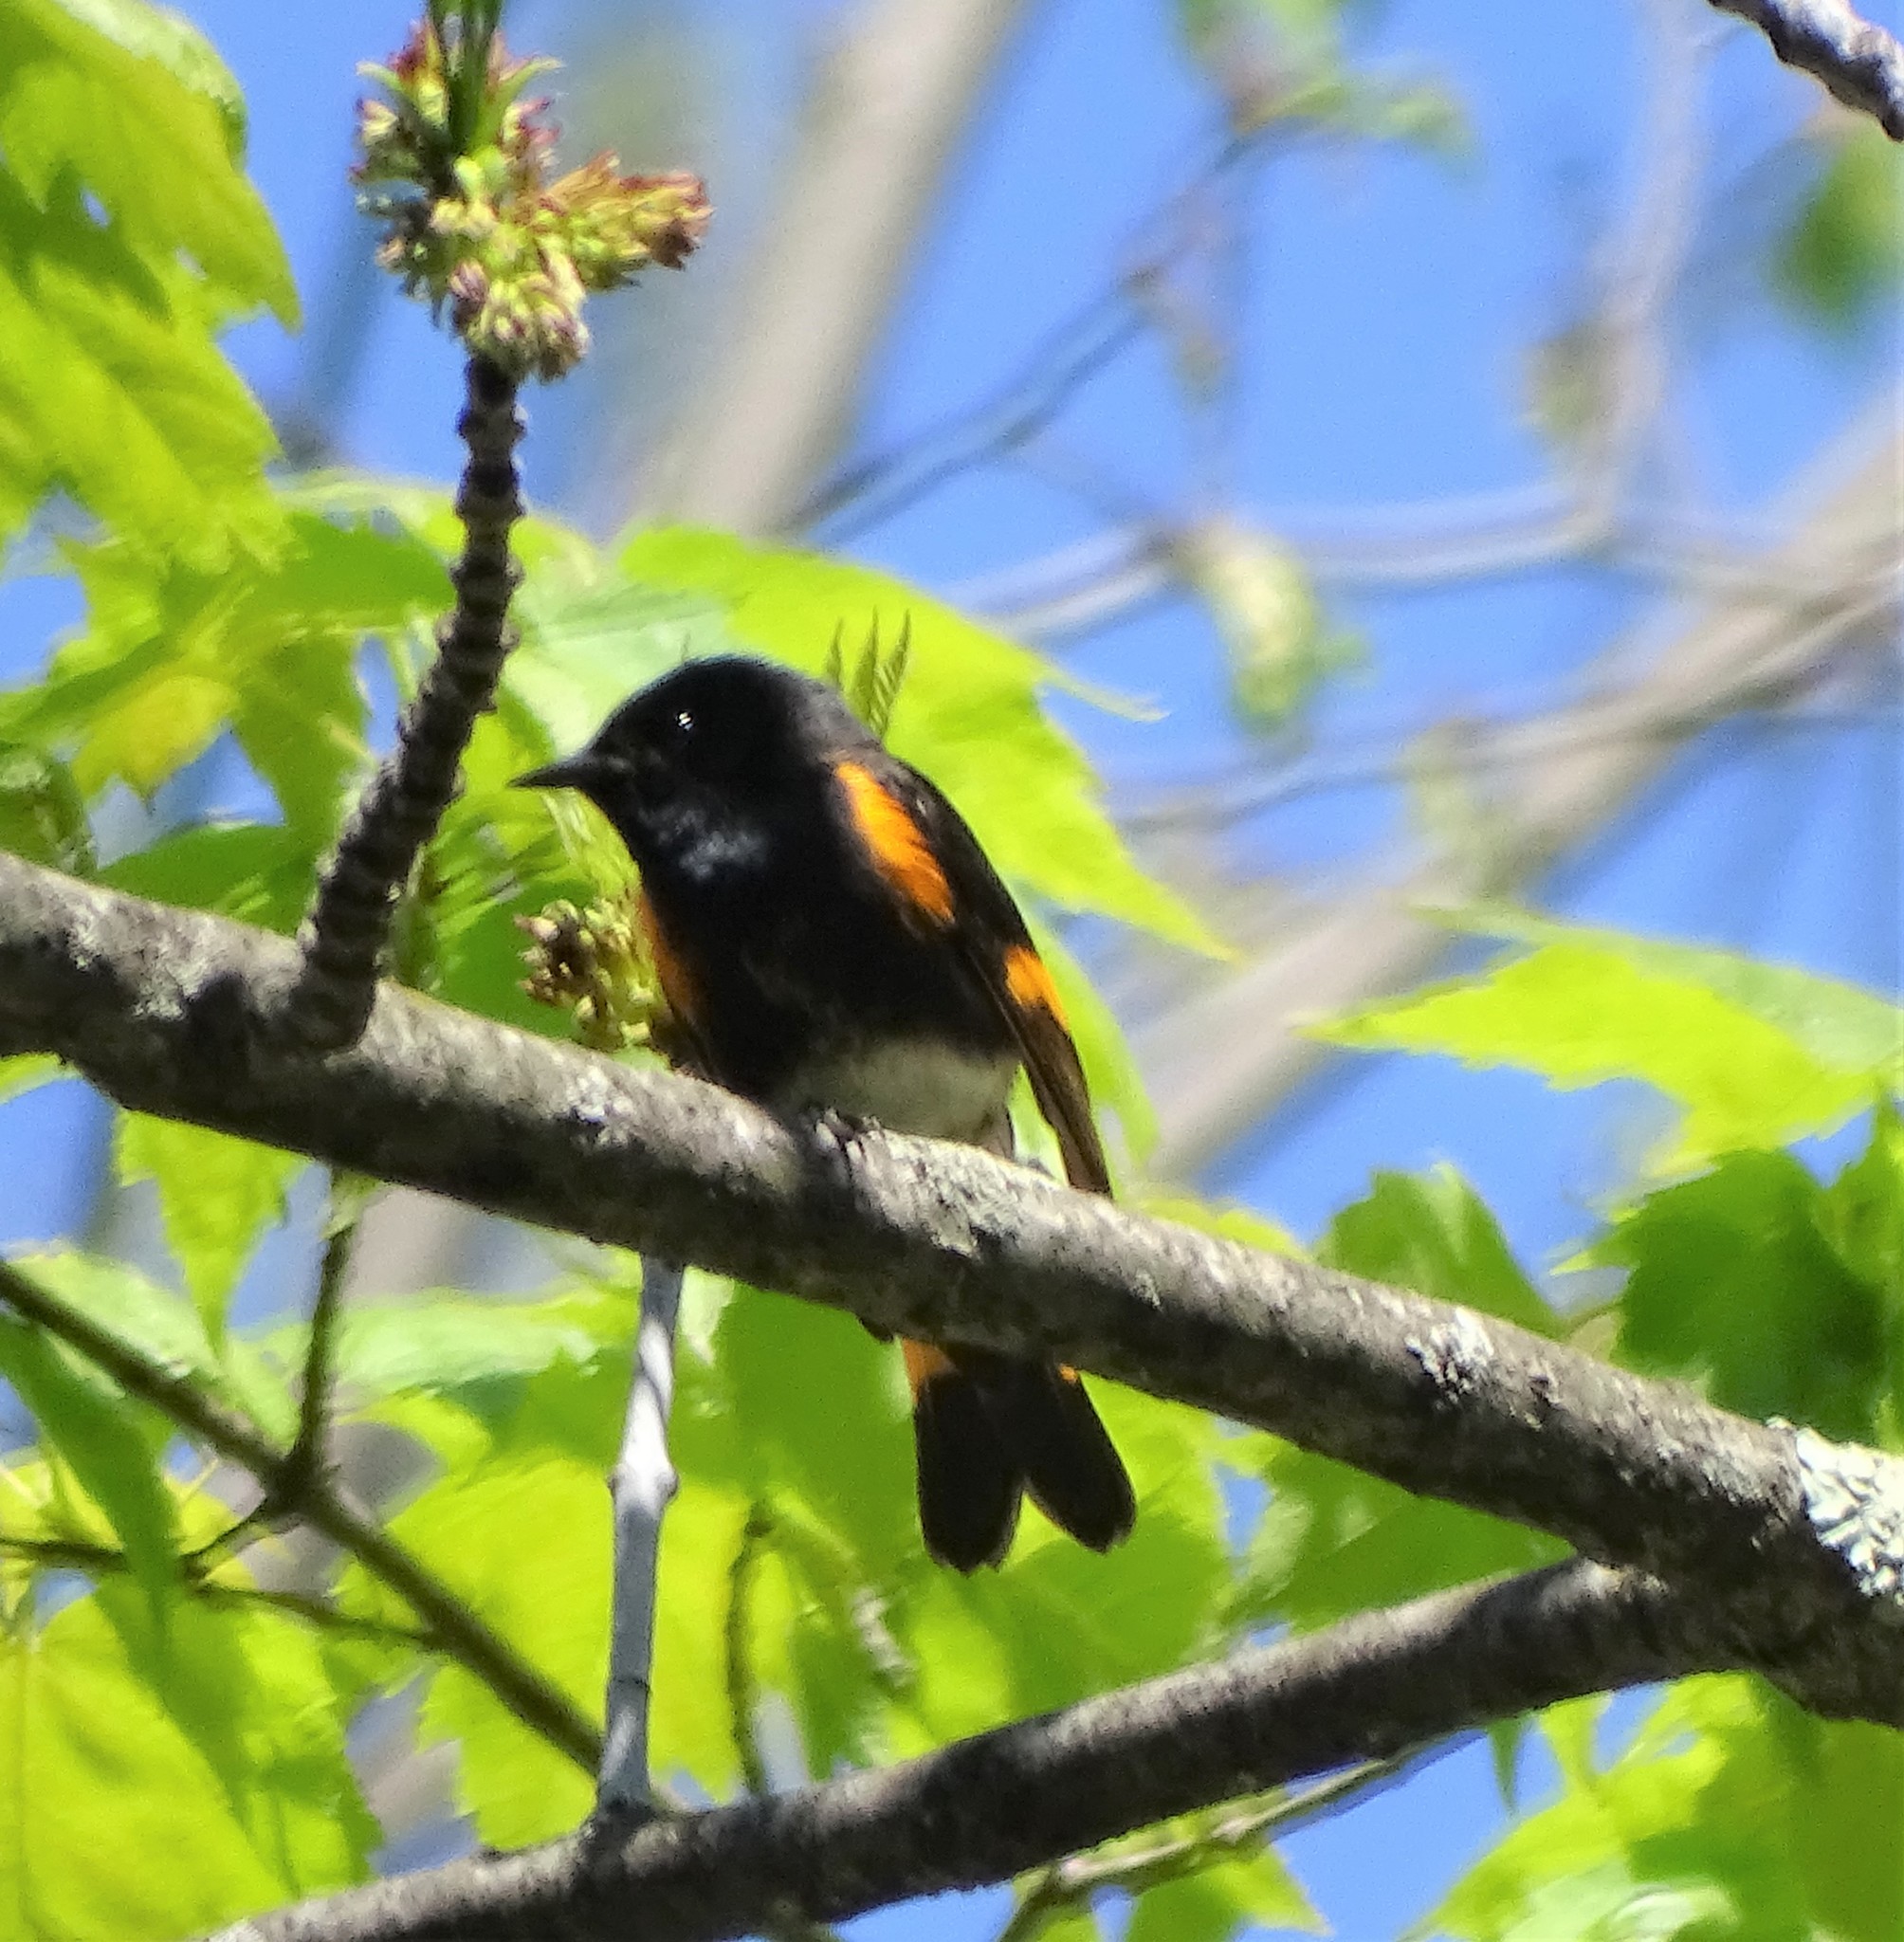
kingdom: Animalia
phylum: Chordata
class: Aves
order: Passeriformes
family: Parulidae
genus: Setophaga
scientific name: Setophaga ruticilla
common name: American redstart
